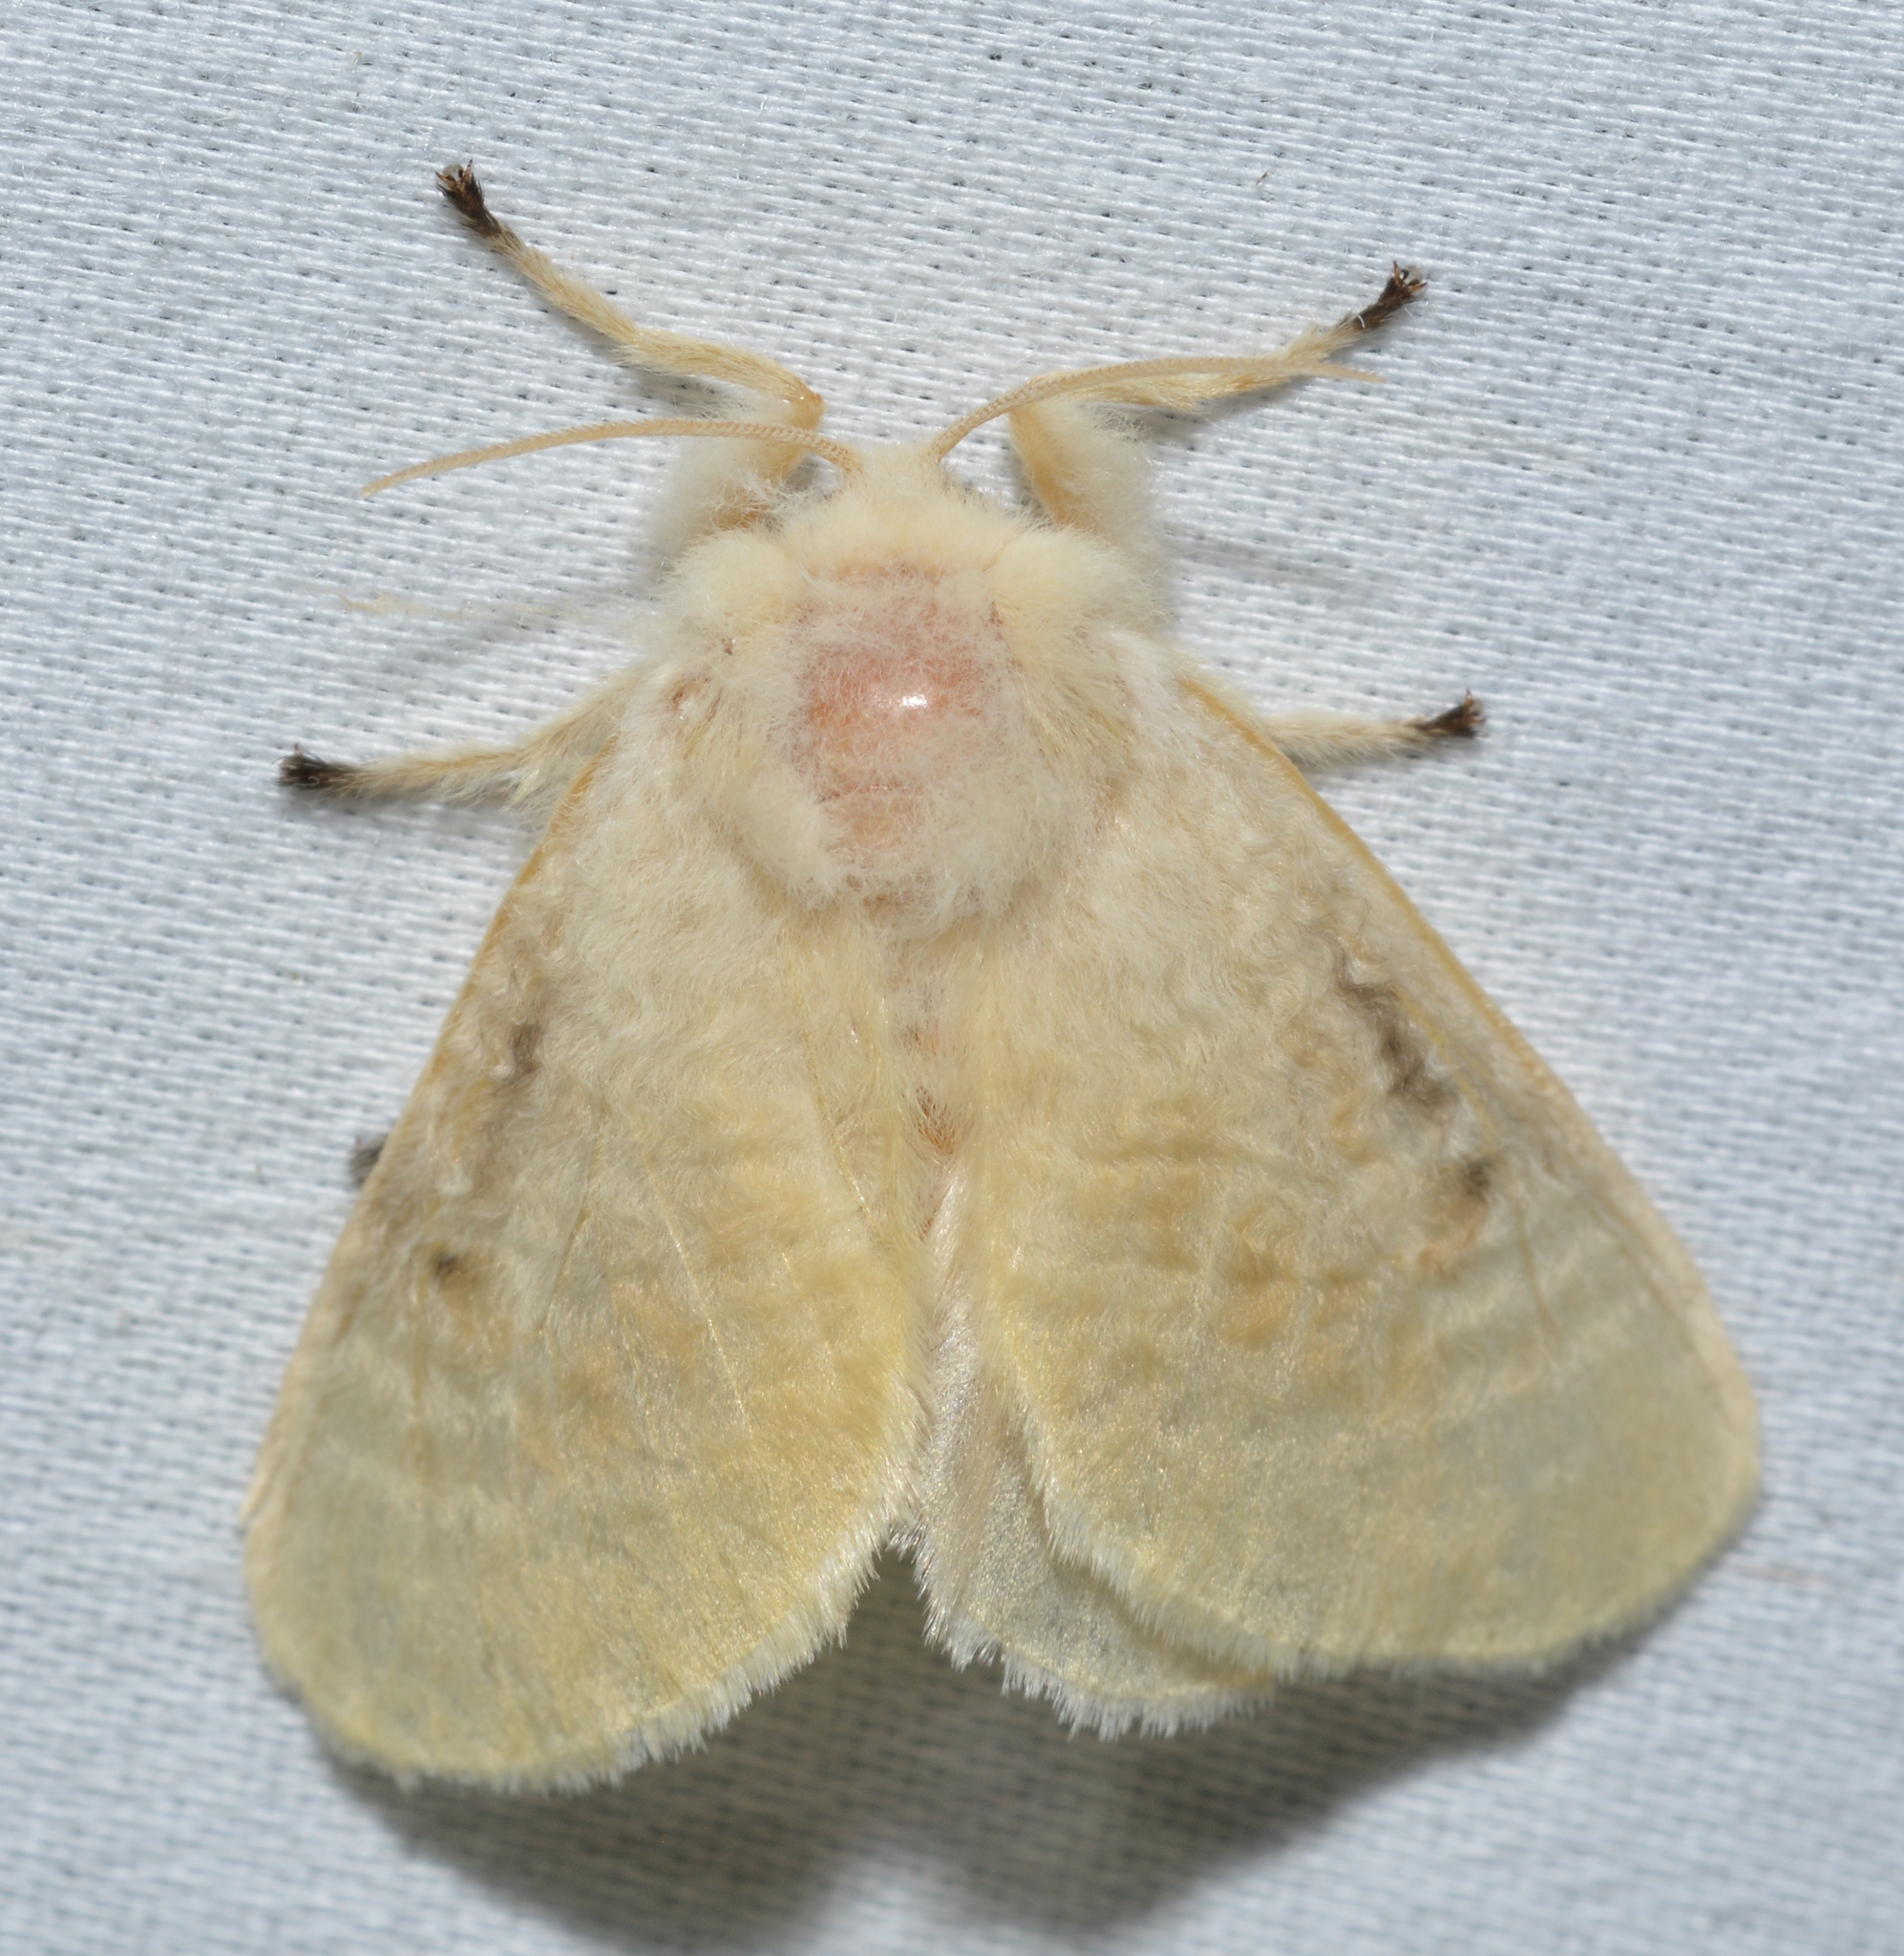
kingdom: Animalia
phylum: Arthropoda
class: Insecta
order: Lepidoptera
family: Megalopygidae
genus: Megalopyge
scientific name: Megalopyge crispata
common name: Black-waved flannel moth
